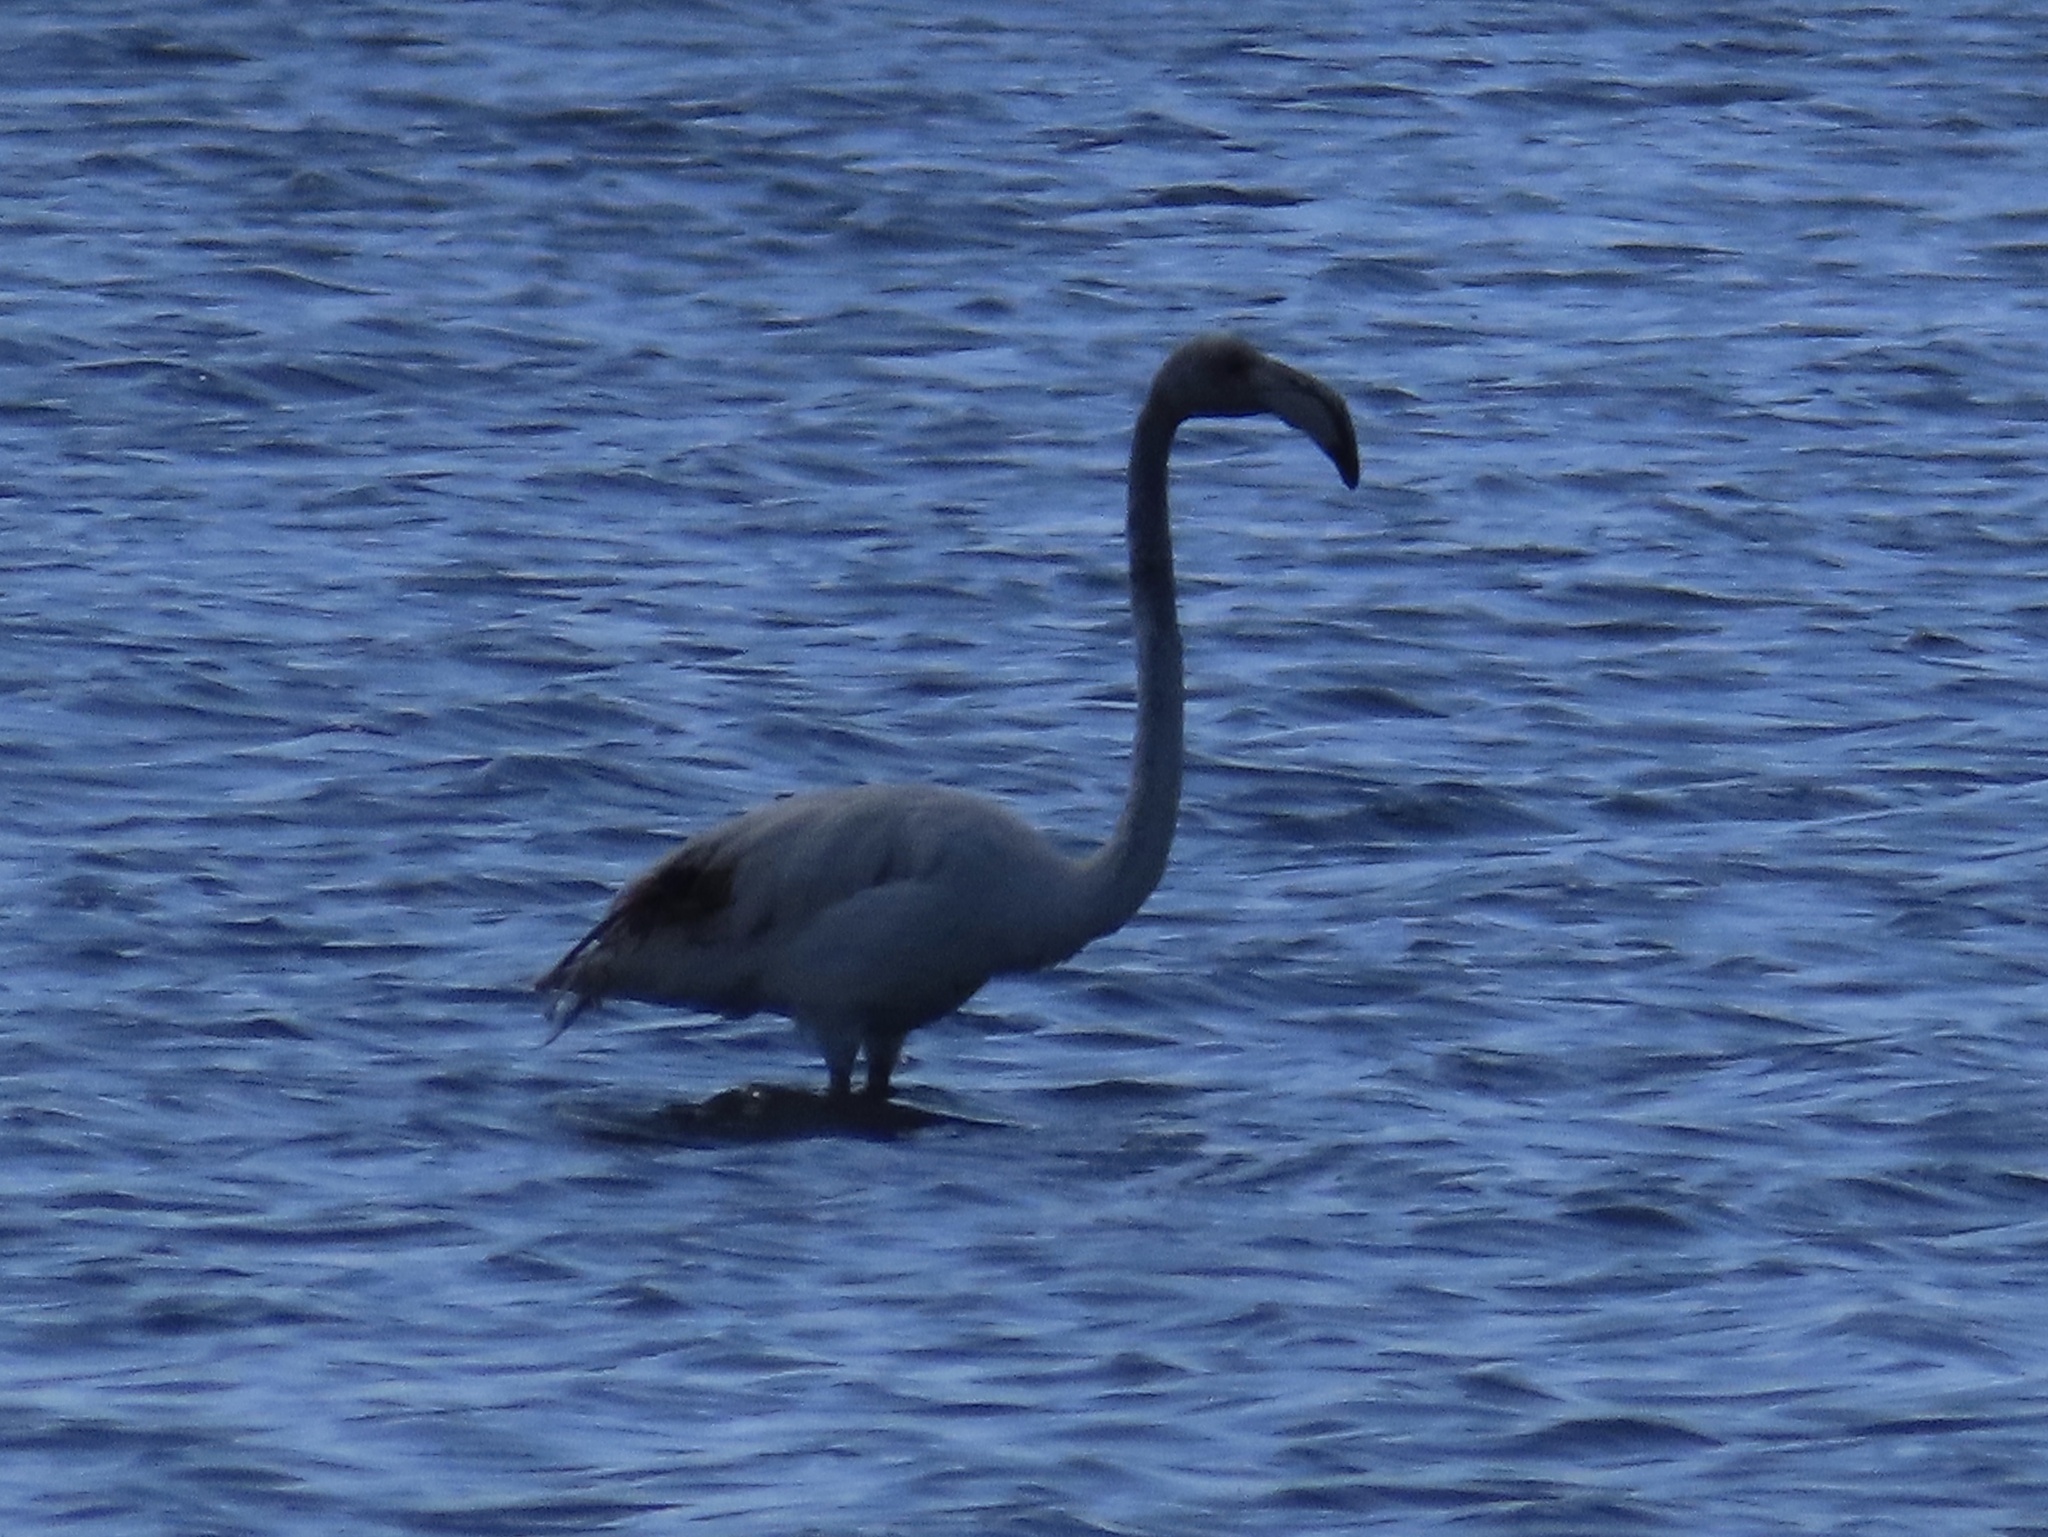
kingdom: Animalia
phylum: Chordata
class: Aves
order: Phoenicopteriformes
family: Phoenicopteridae
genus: Phoenicopterus
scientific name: Phoenicopterus roseus
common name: Greater flamingo
